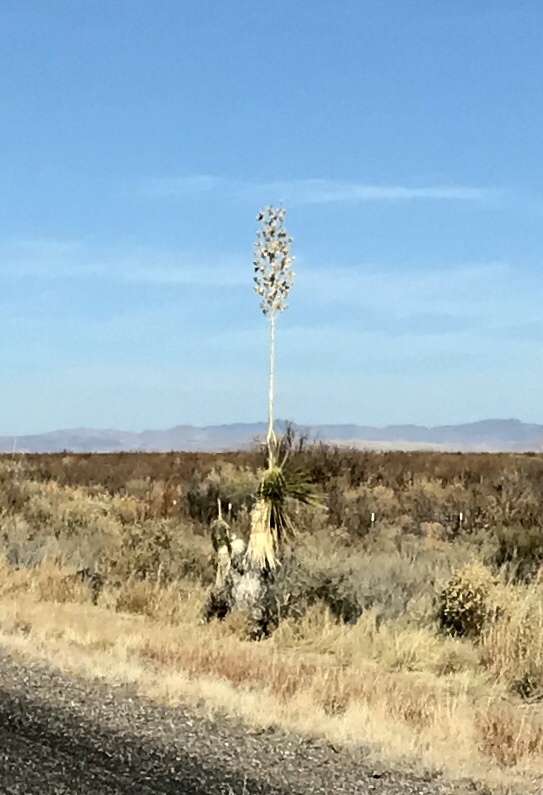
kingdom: Plantae
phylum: Tracheophyta
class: Liliopsida
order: Asparagales
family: Asparagaceae
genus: Yucca
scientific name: Yucca elata
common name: Palmella
